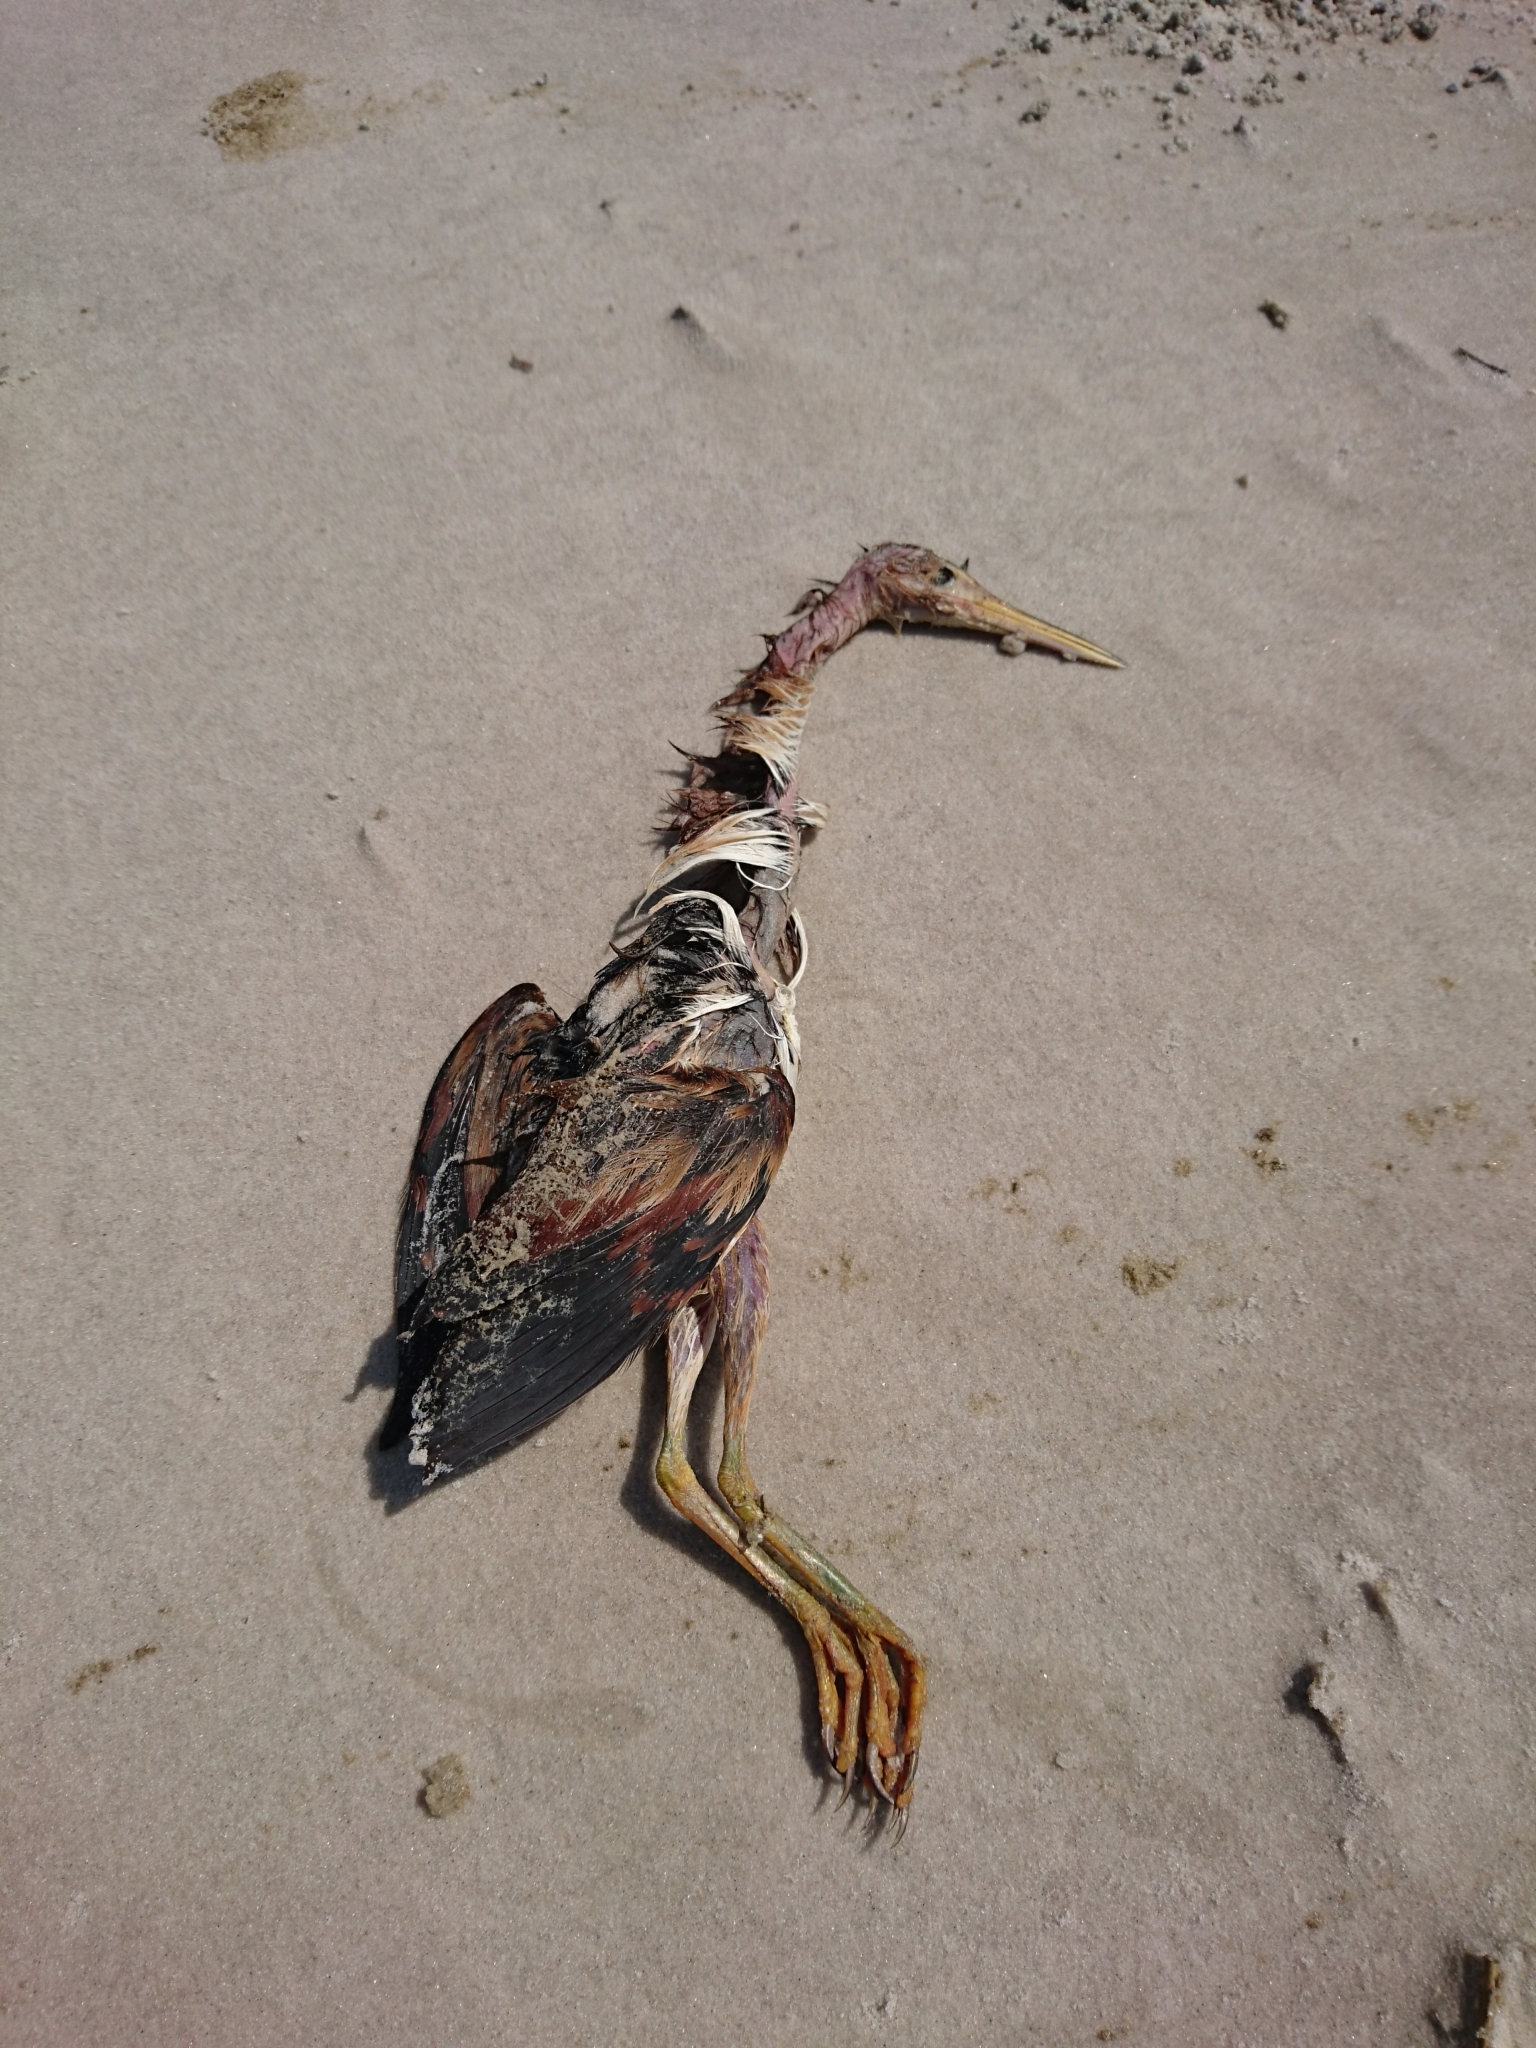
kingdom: Animalia
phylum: Chordata
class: Aves
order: Pelecaniformes
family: Ardeidae
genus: Ixobrychus
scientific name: Ixobrychus exilis
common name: Least bittern
